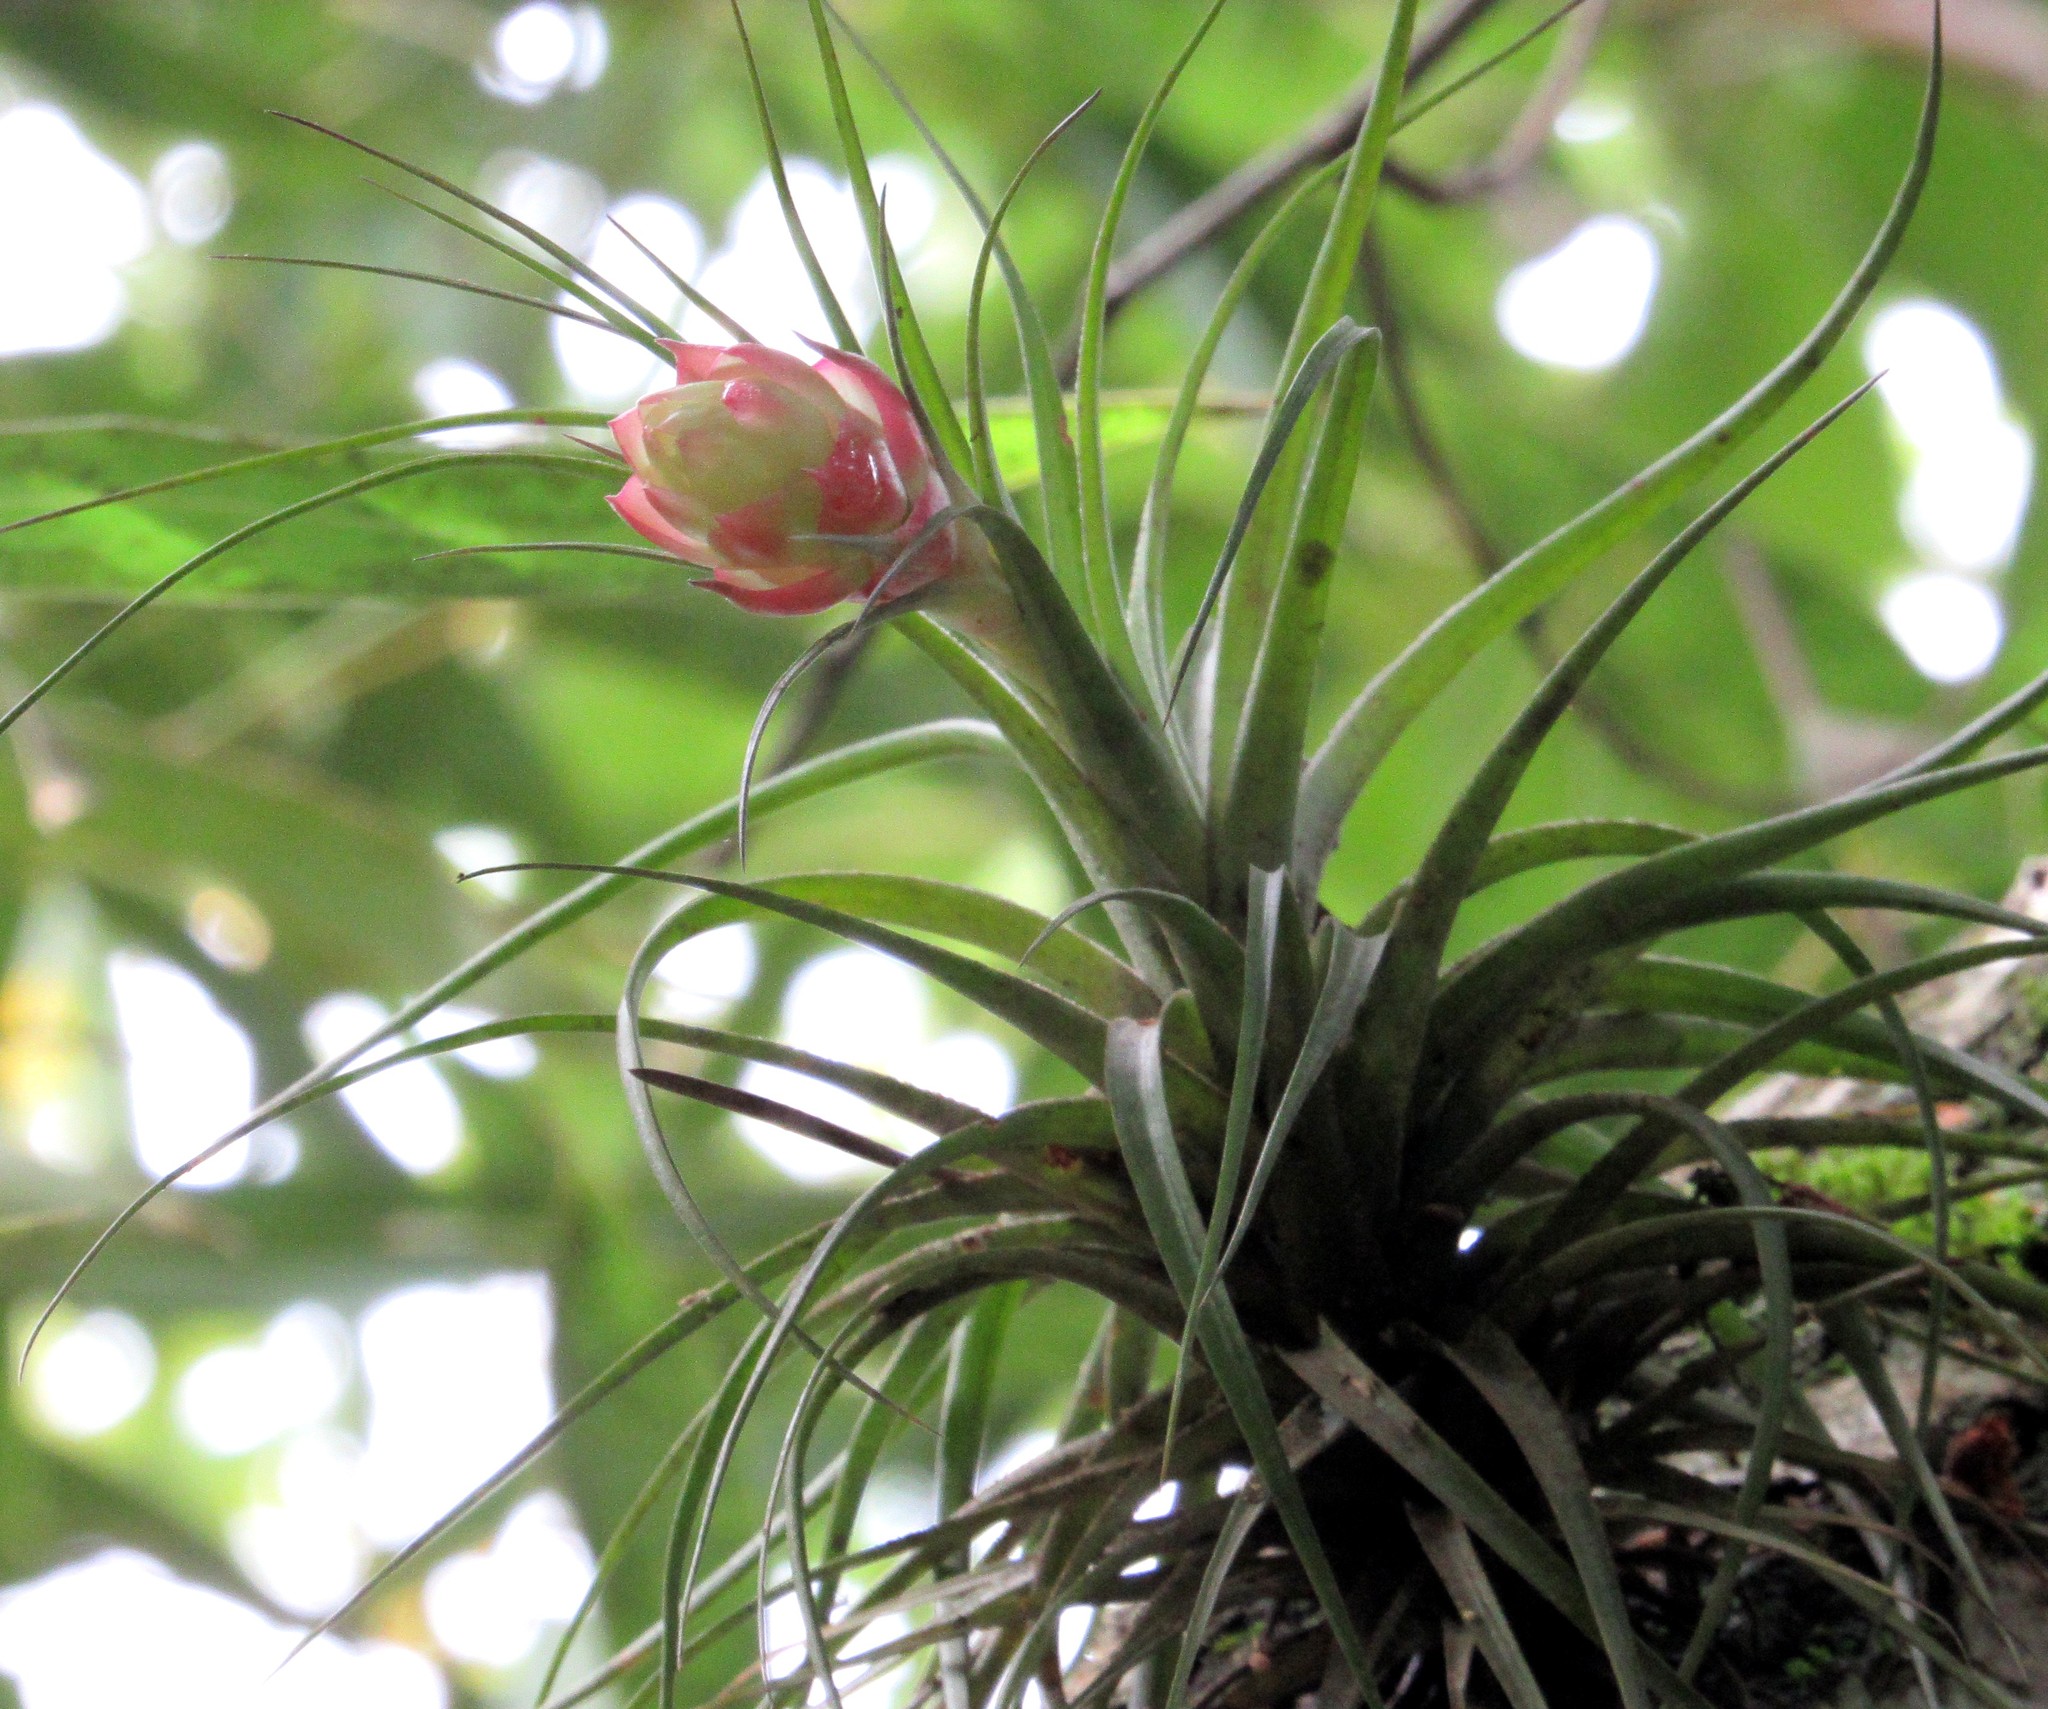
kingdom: Plantae
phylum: Tracheophyta
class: Liliopsida
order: Poales
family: Bromeliaceae
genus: Tillandsia
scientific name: Tillandsia stricta
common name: Airplant
